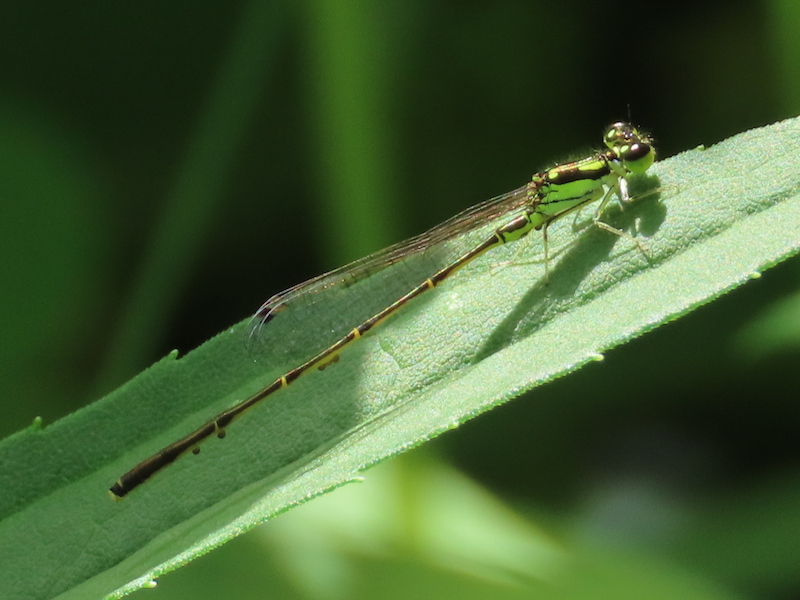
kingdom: Animalia
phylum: Arthropoda
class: Insecta
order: Odonata
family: Coenagrionidae
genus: Ischnura
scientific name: Ischnura posita
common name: Fragile forktail
